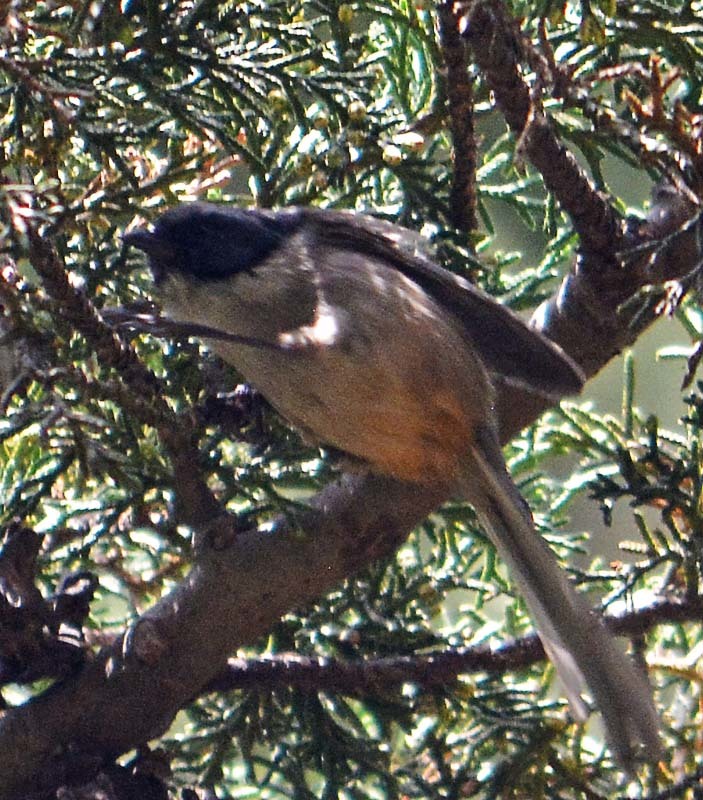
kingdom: Animalia
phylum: Chordata
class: Aves
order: Passeriformes
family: Aegithalidae
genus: Psaltriparus
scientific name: Psaltriparus minimus
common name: American bushtit
